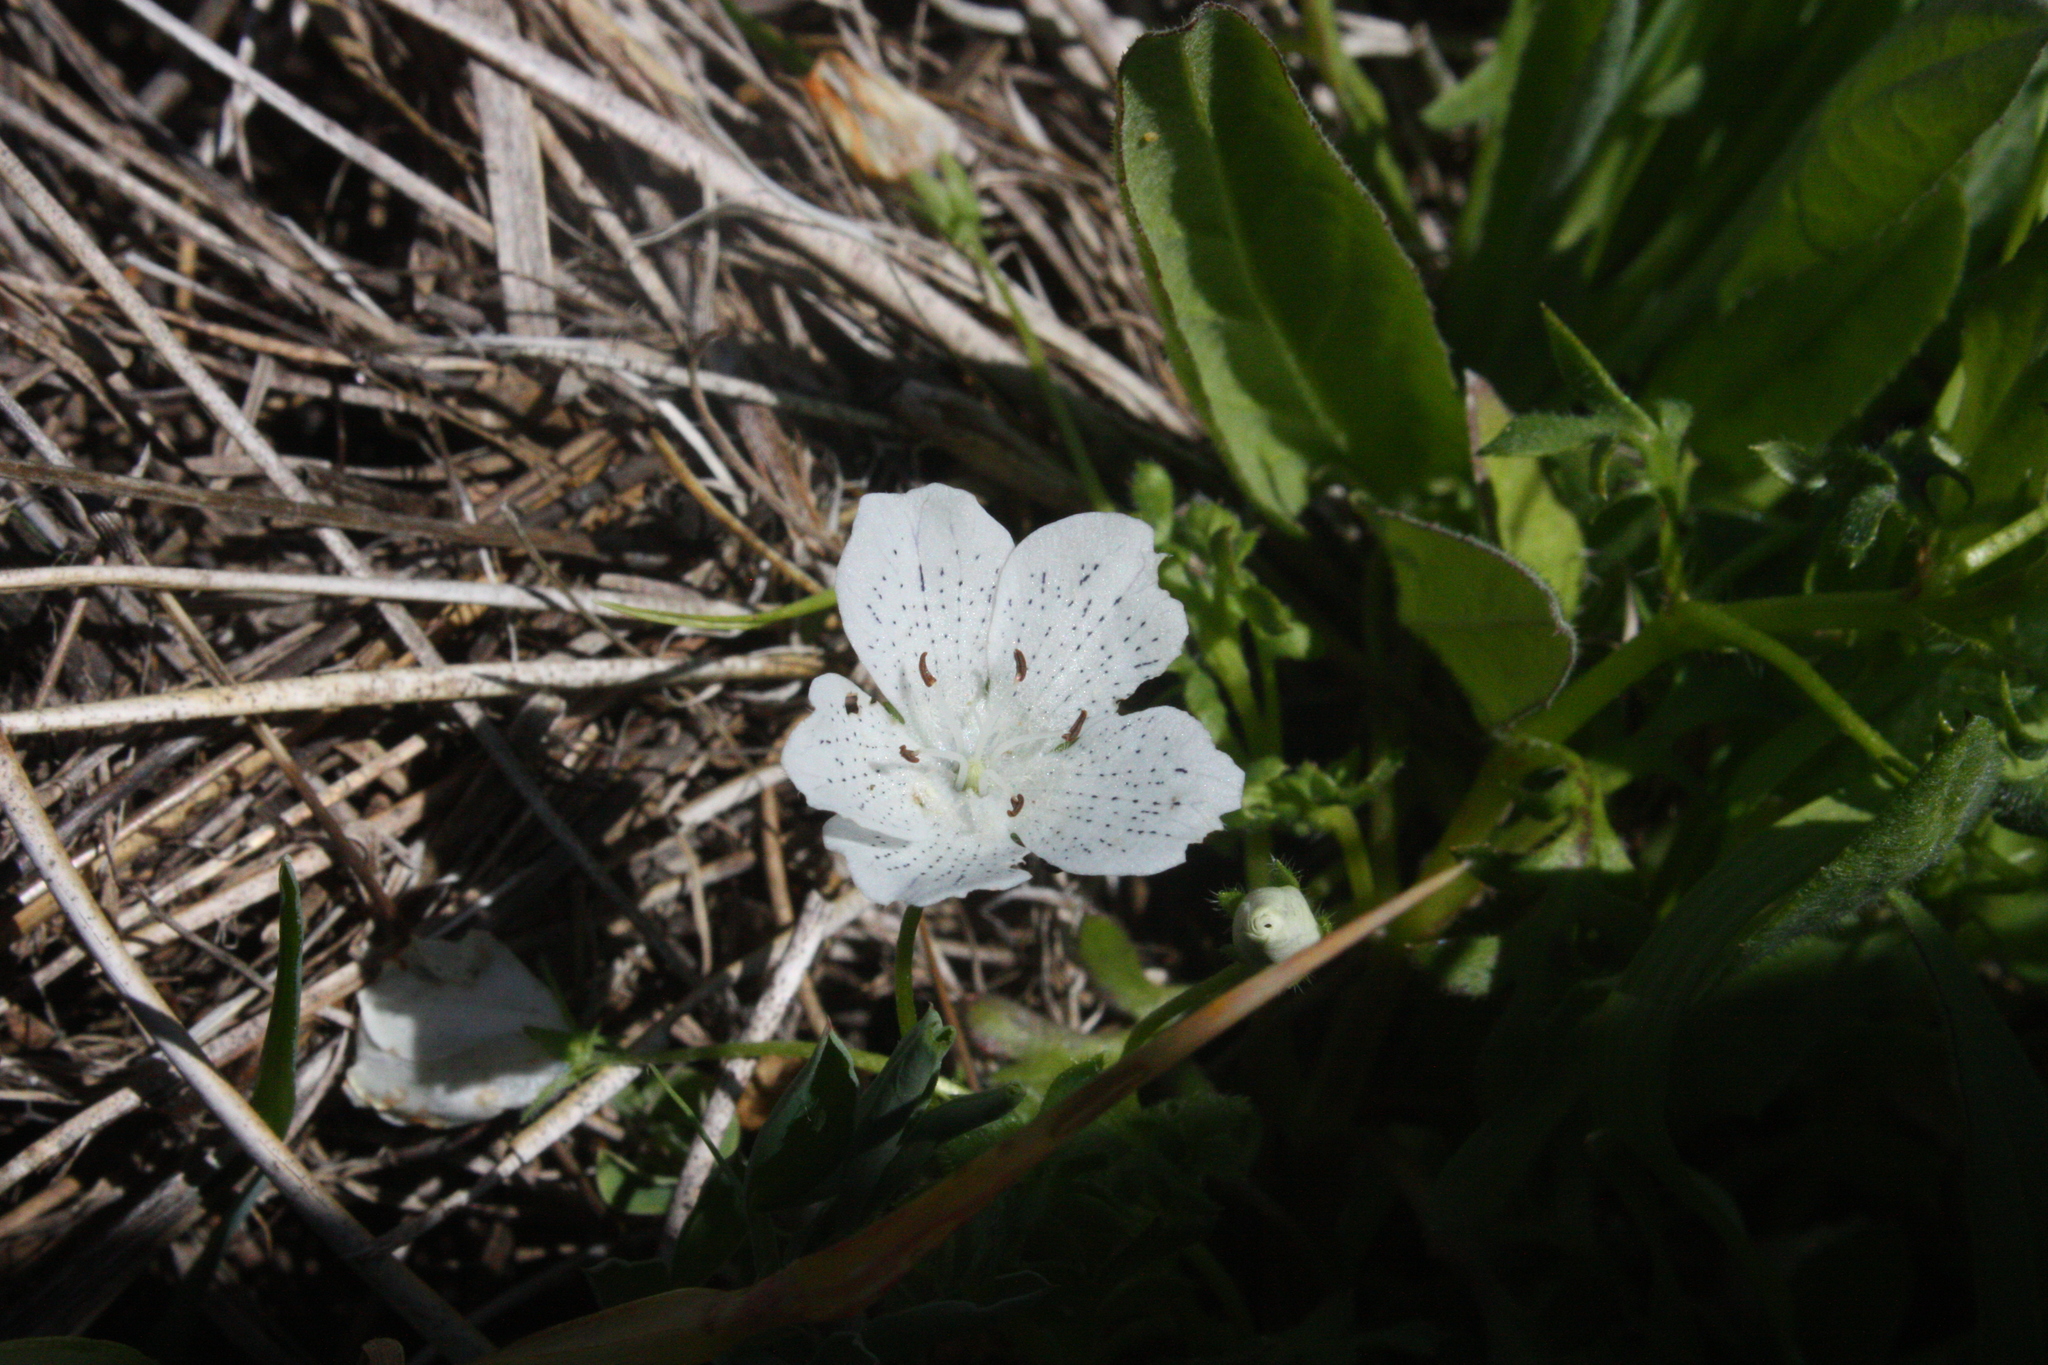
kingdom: Plantae
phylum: Tracheophyta
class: Magnoliopsida
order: Boraginales
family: Hydrophyllaceae
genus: Nemophila
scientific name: Nemophila menziesii
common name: Baby's-blue-eyes
